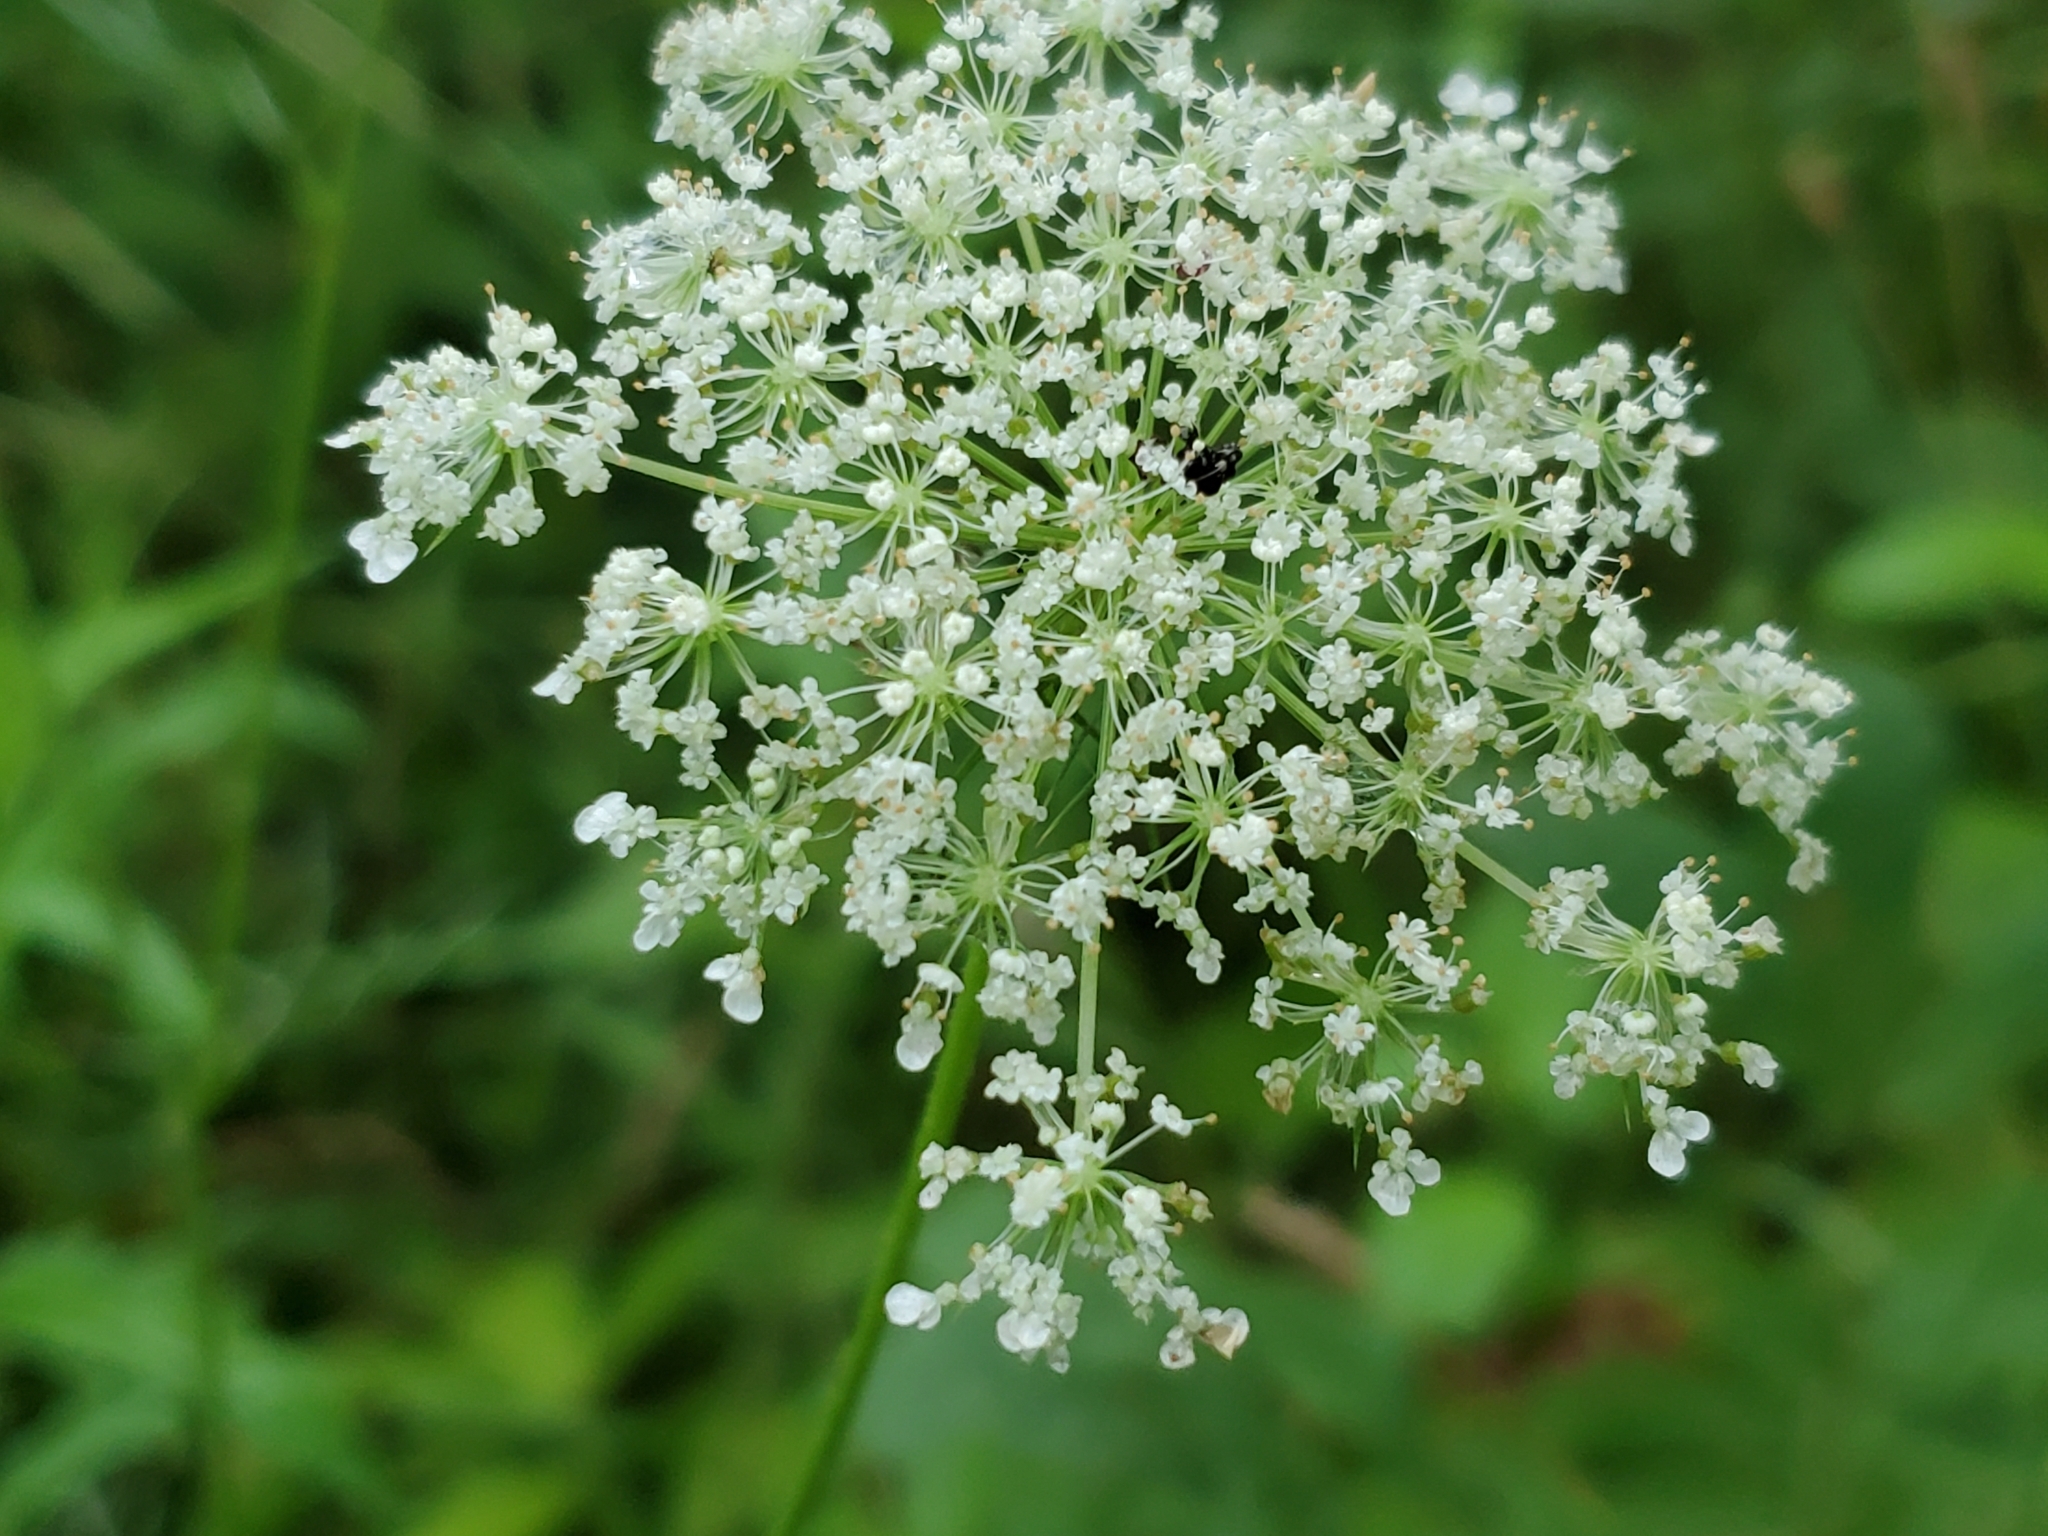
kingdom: Plantae
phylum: Tracheophyta
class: Magnoliopsida
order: Apiales
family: Apiaceae
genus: Daucus
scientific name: Daucus carota
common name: Wild carrot
